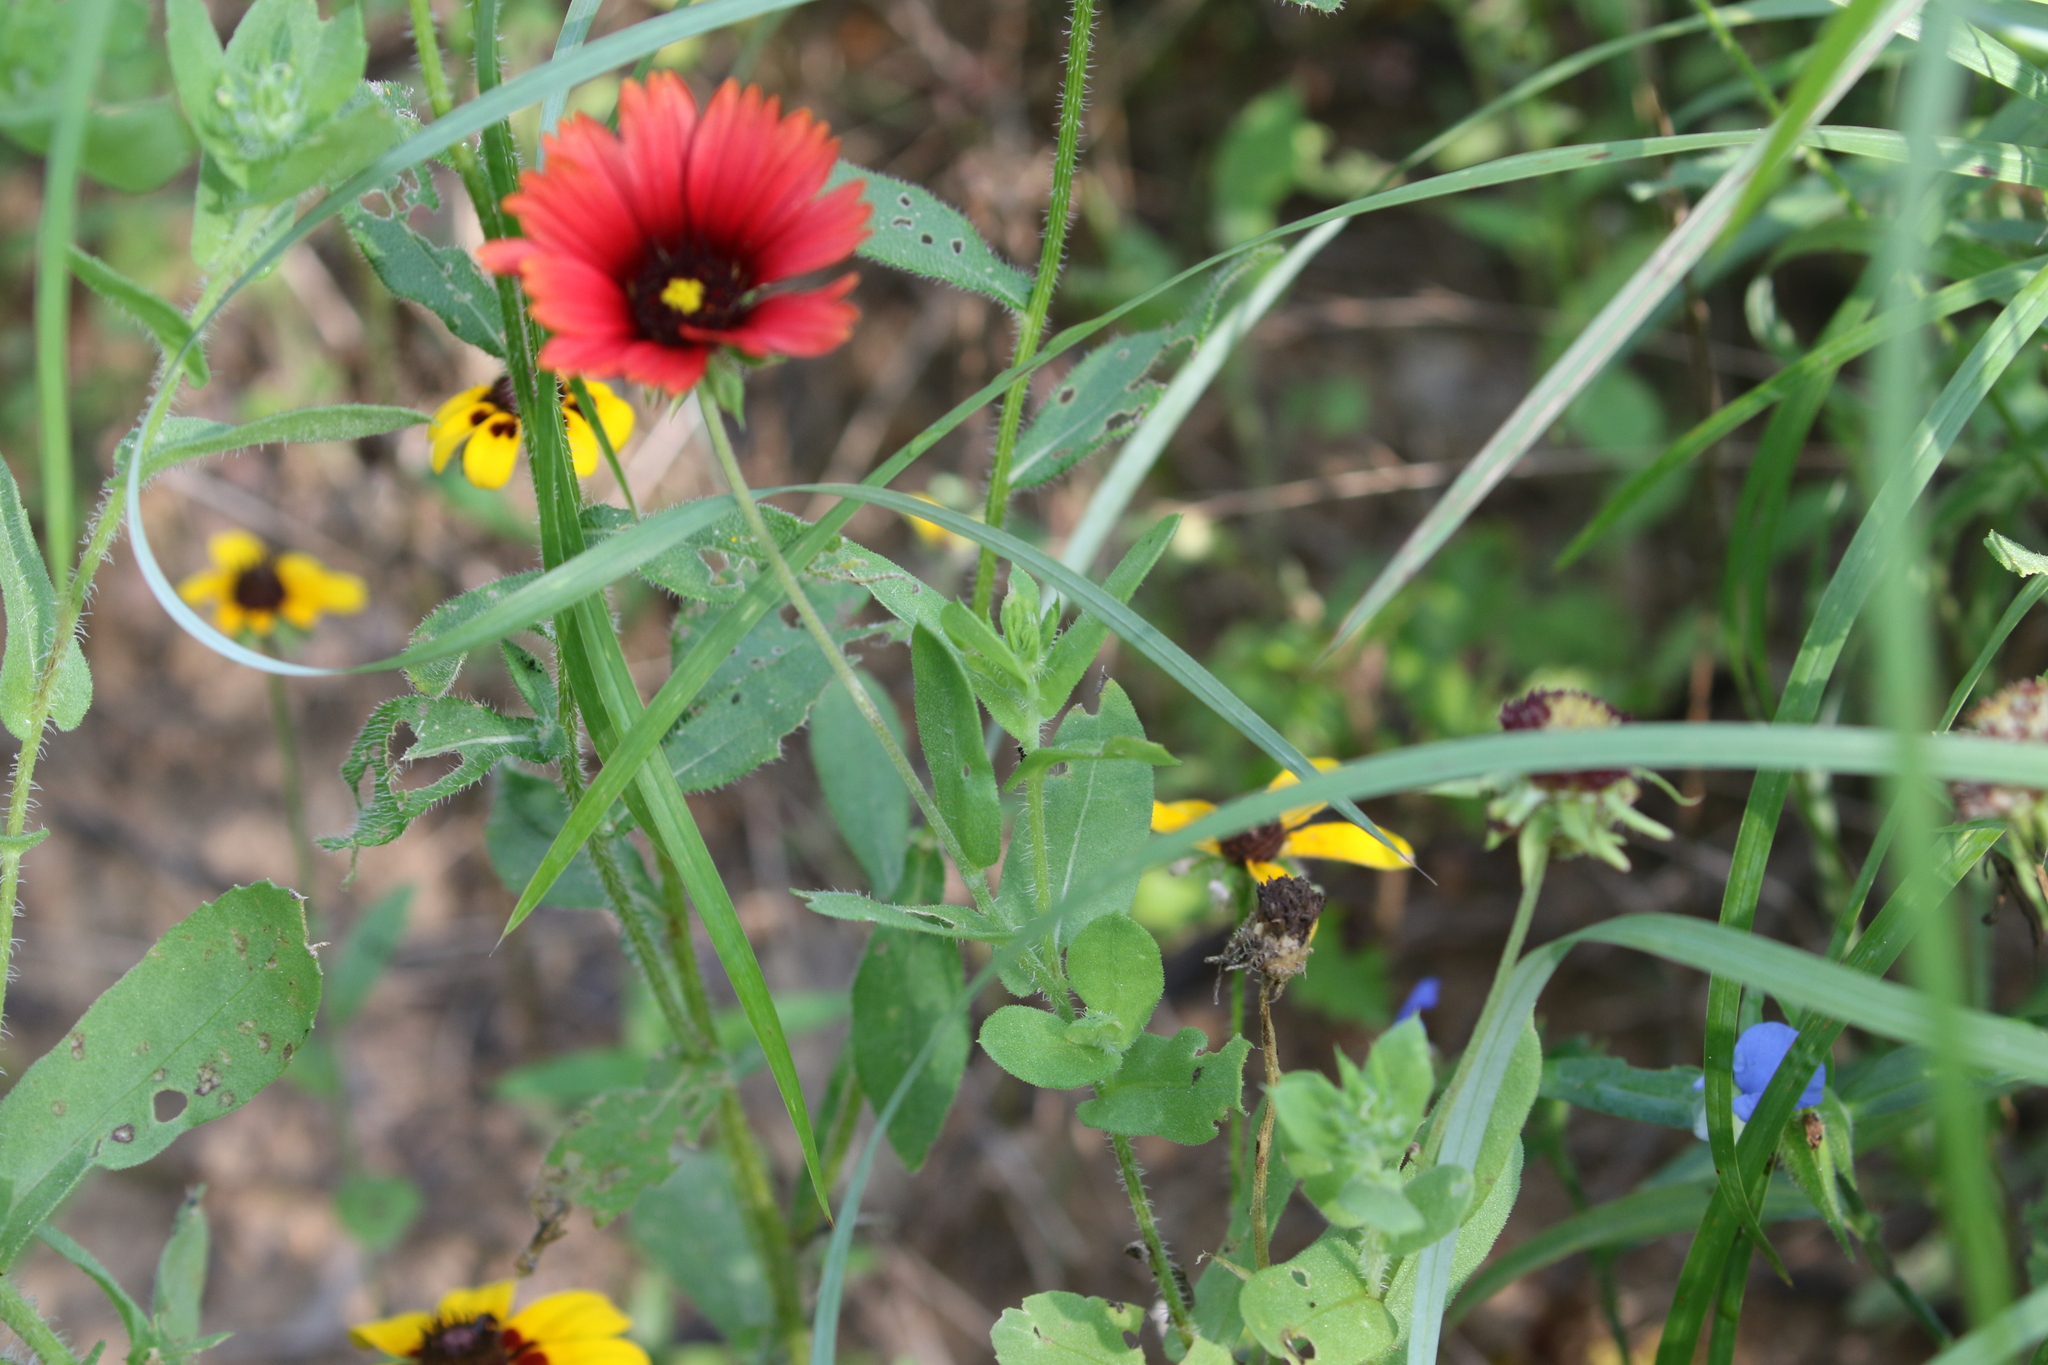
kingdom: Plantae
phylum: Tracheophyta
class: Magnoliopsida
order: Asterales
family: Asteraceae
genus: Gaillardia
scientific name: Gaillardia amblyodon
